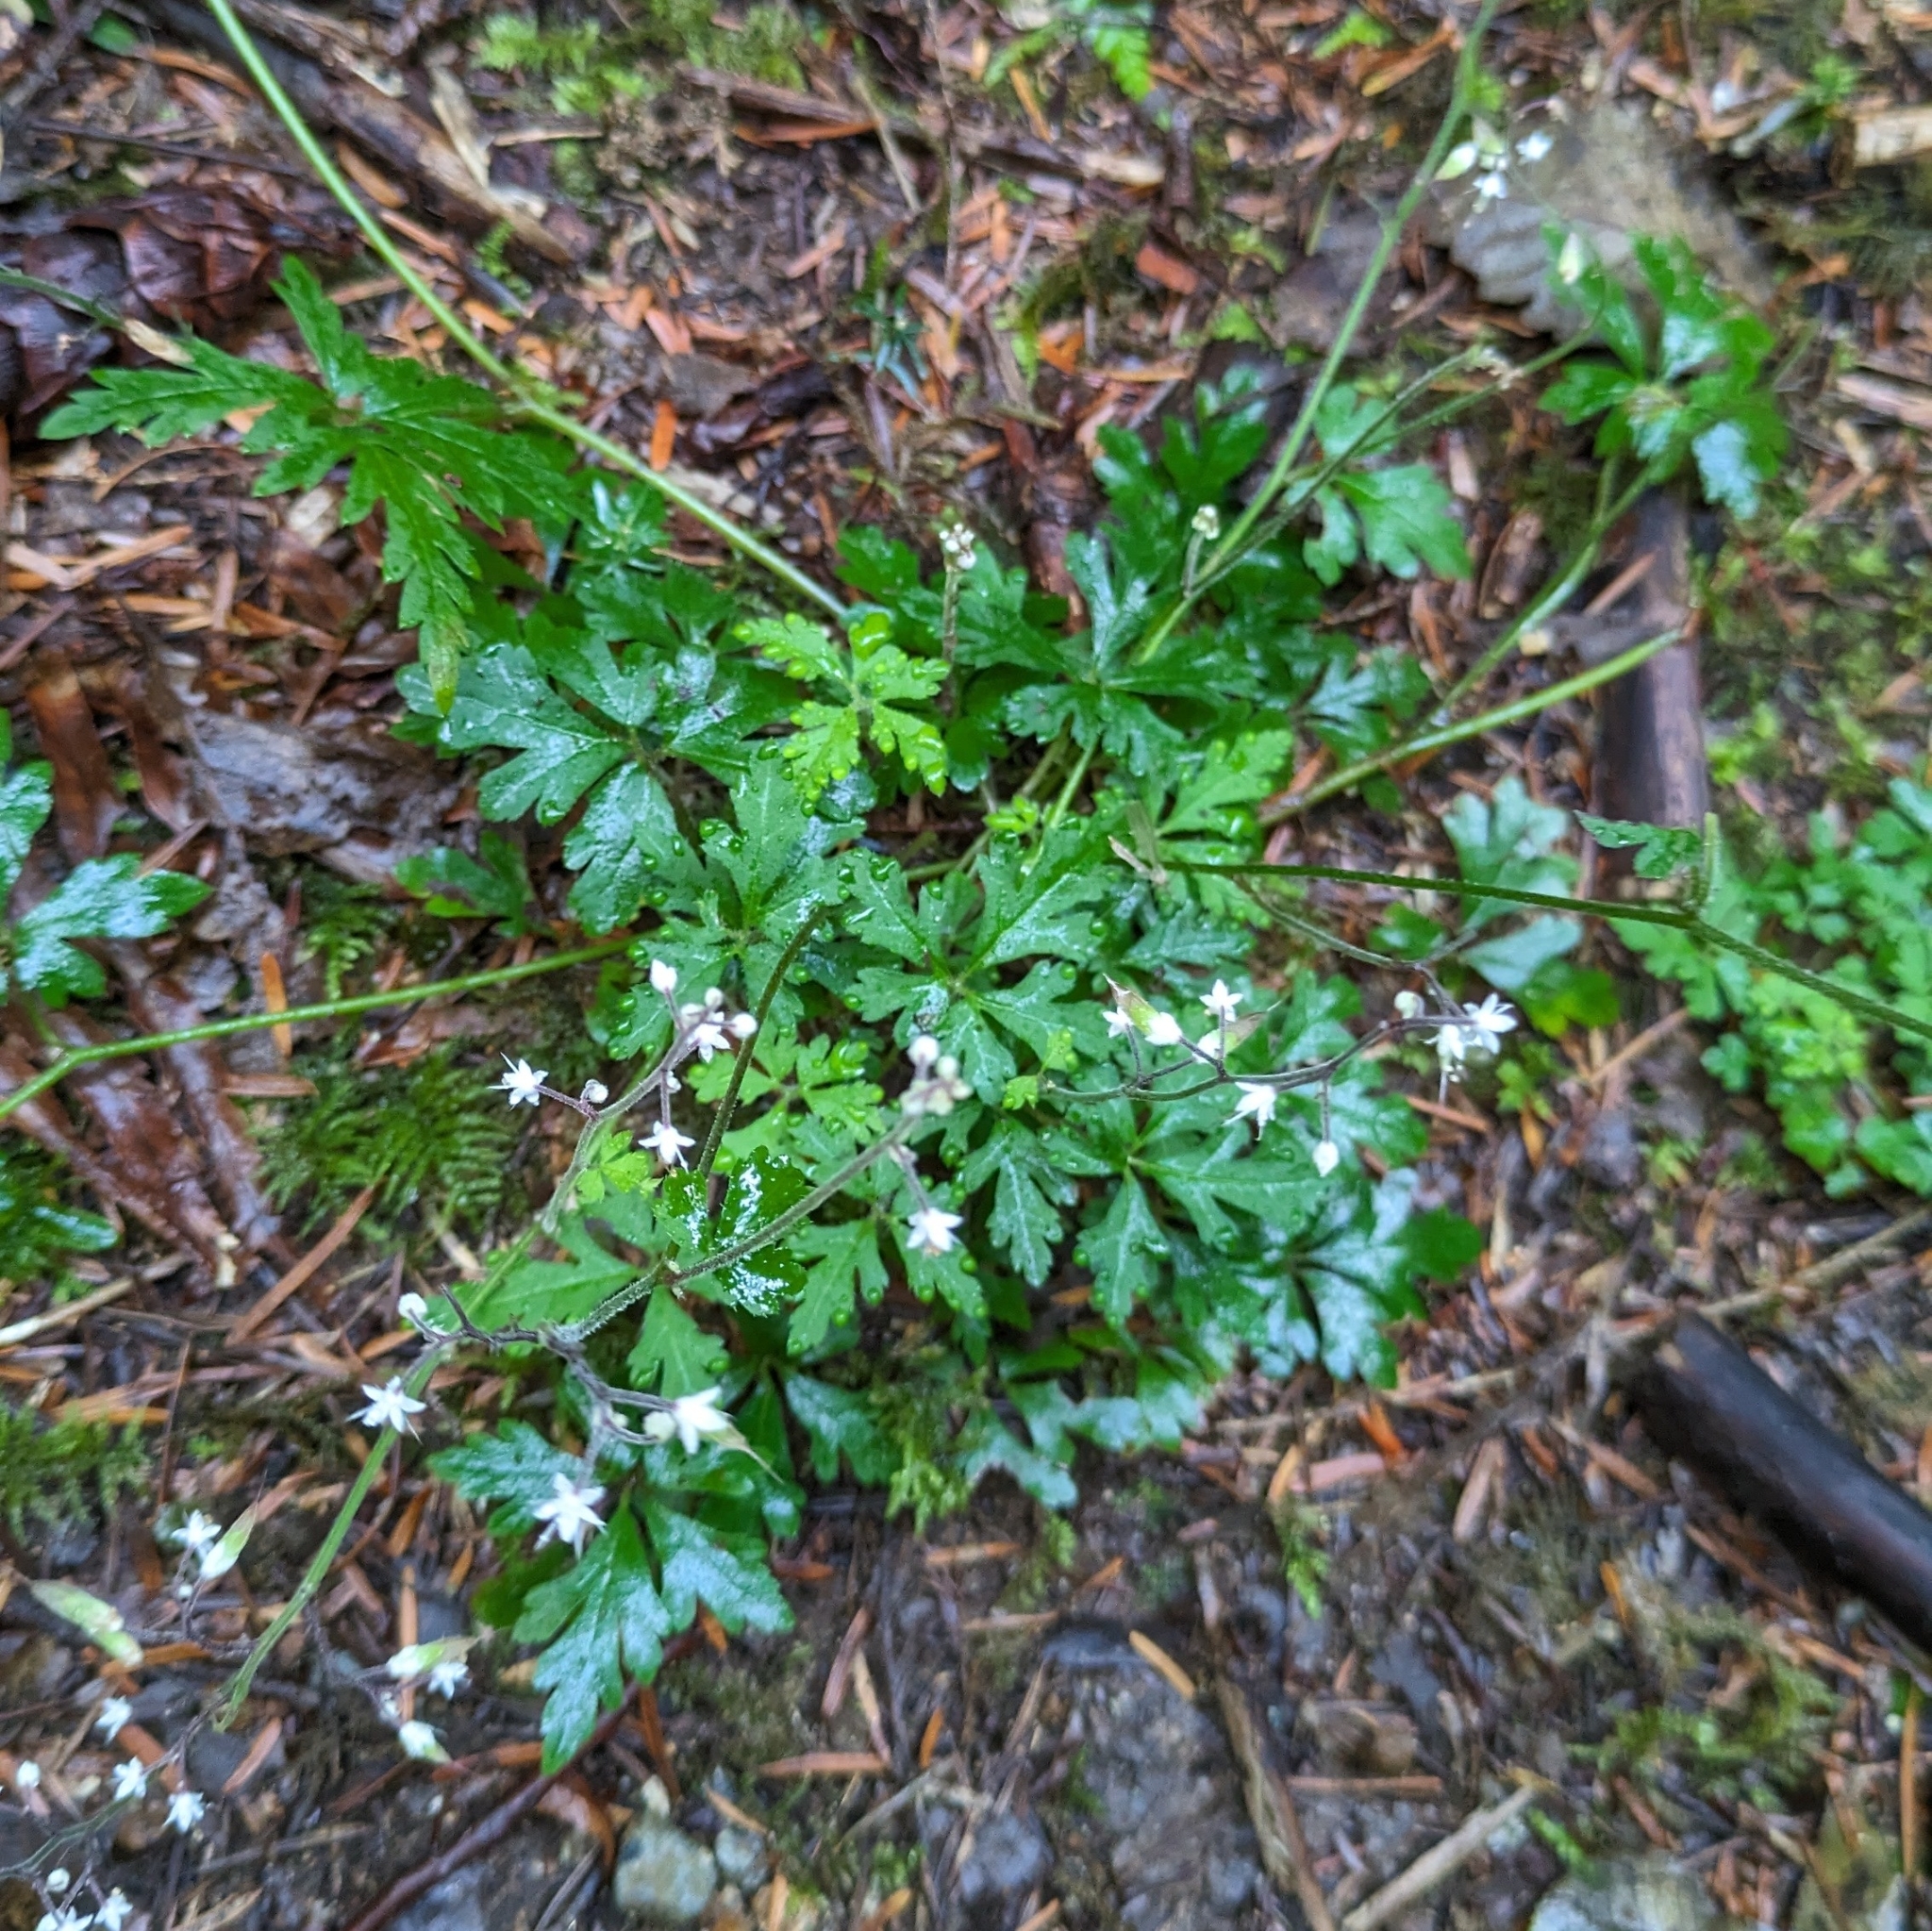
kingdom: Plantae
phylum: Tracheophyta
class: Magnoliopsida
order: Saxifragales
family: Saxifragaceae
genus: Tiarella
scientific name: Tiarella trifoliata
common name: Sugar-scoop
